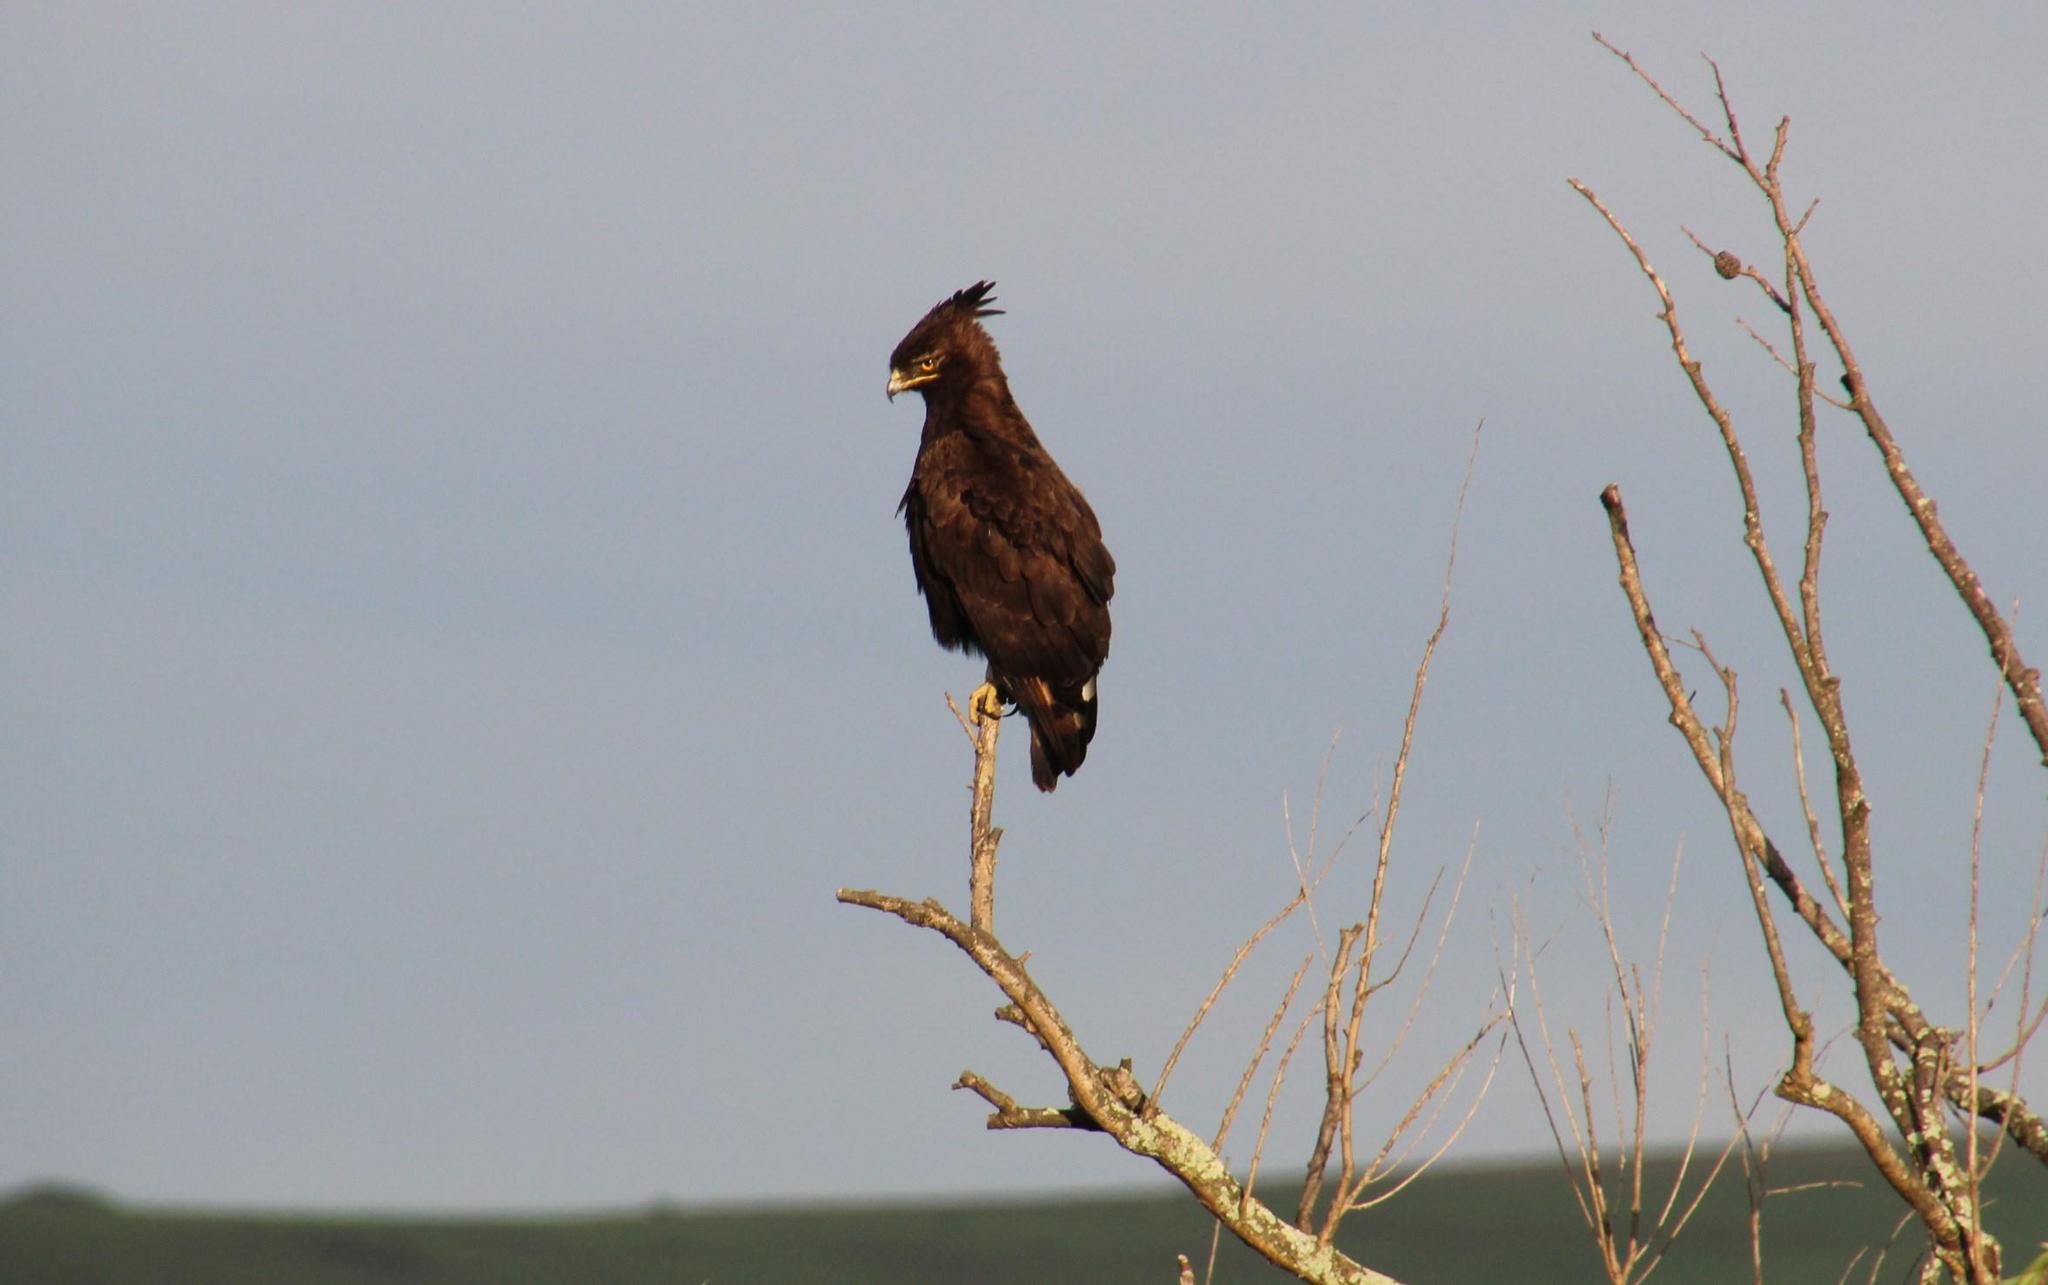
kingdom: Animalia
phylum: Chordata
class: Aves
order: Accipitriformes
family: Accipitridae
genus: Lophaetus
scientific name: Lophaetus occipitalis
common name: Long-crested eagle
